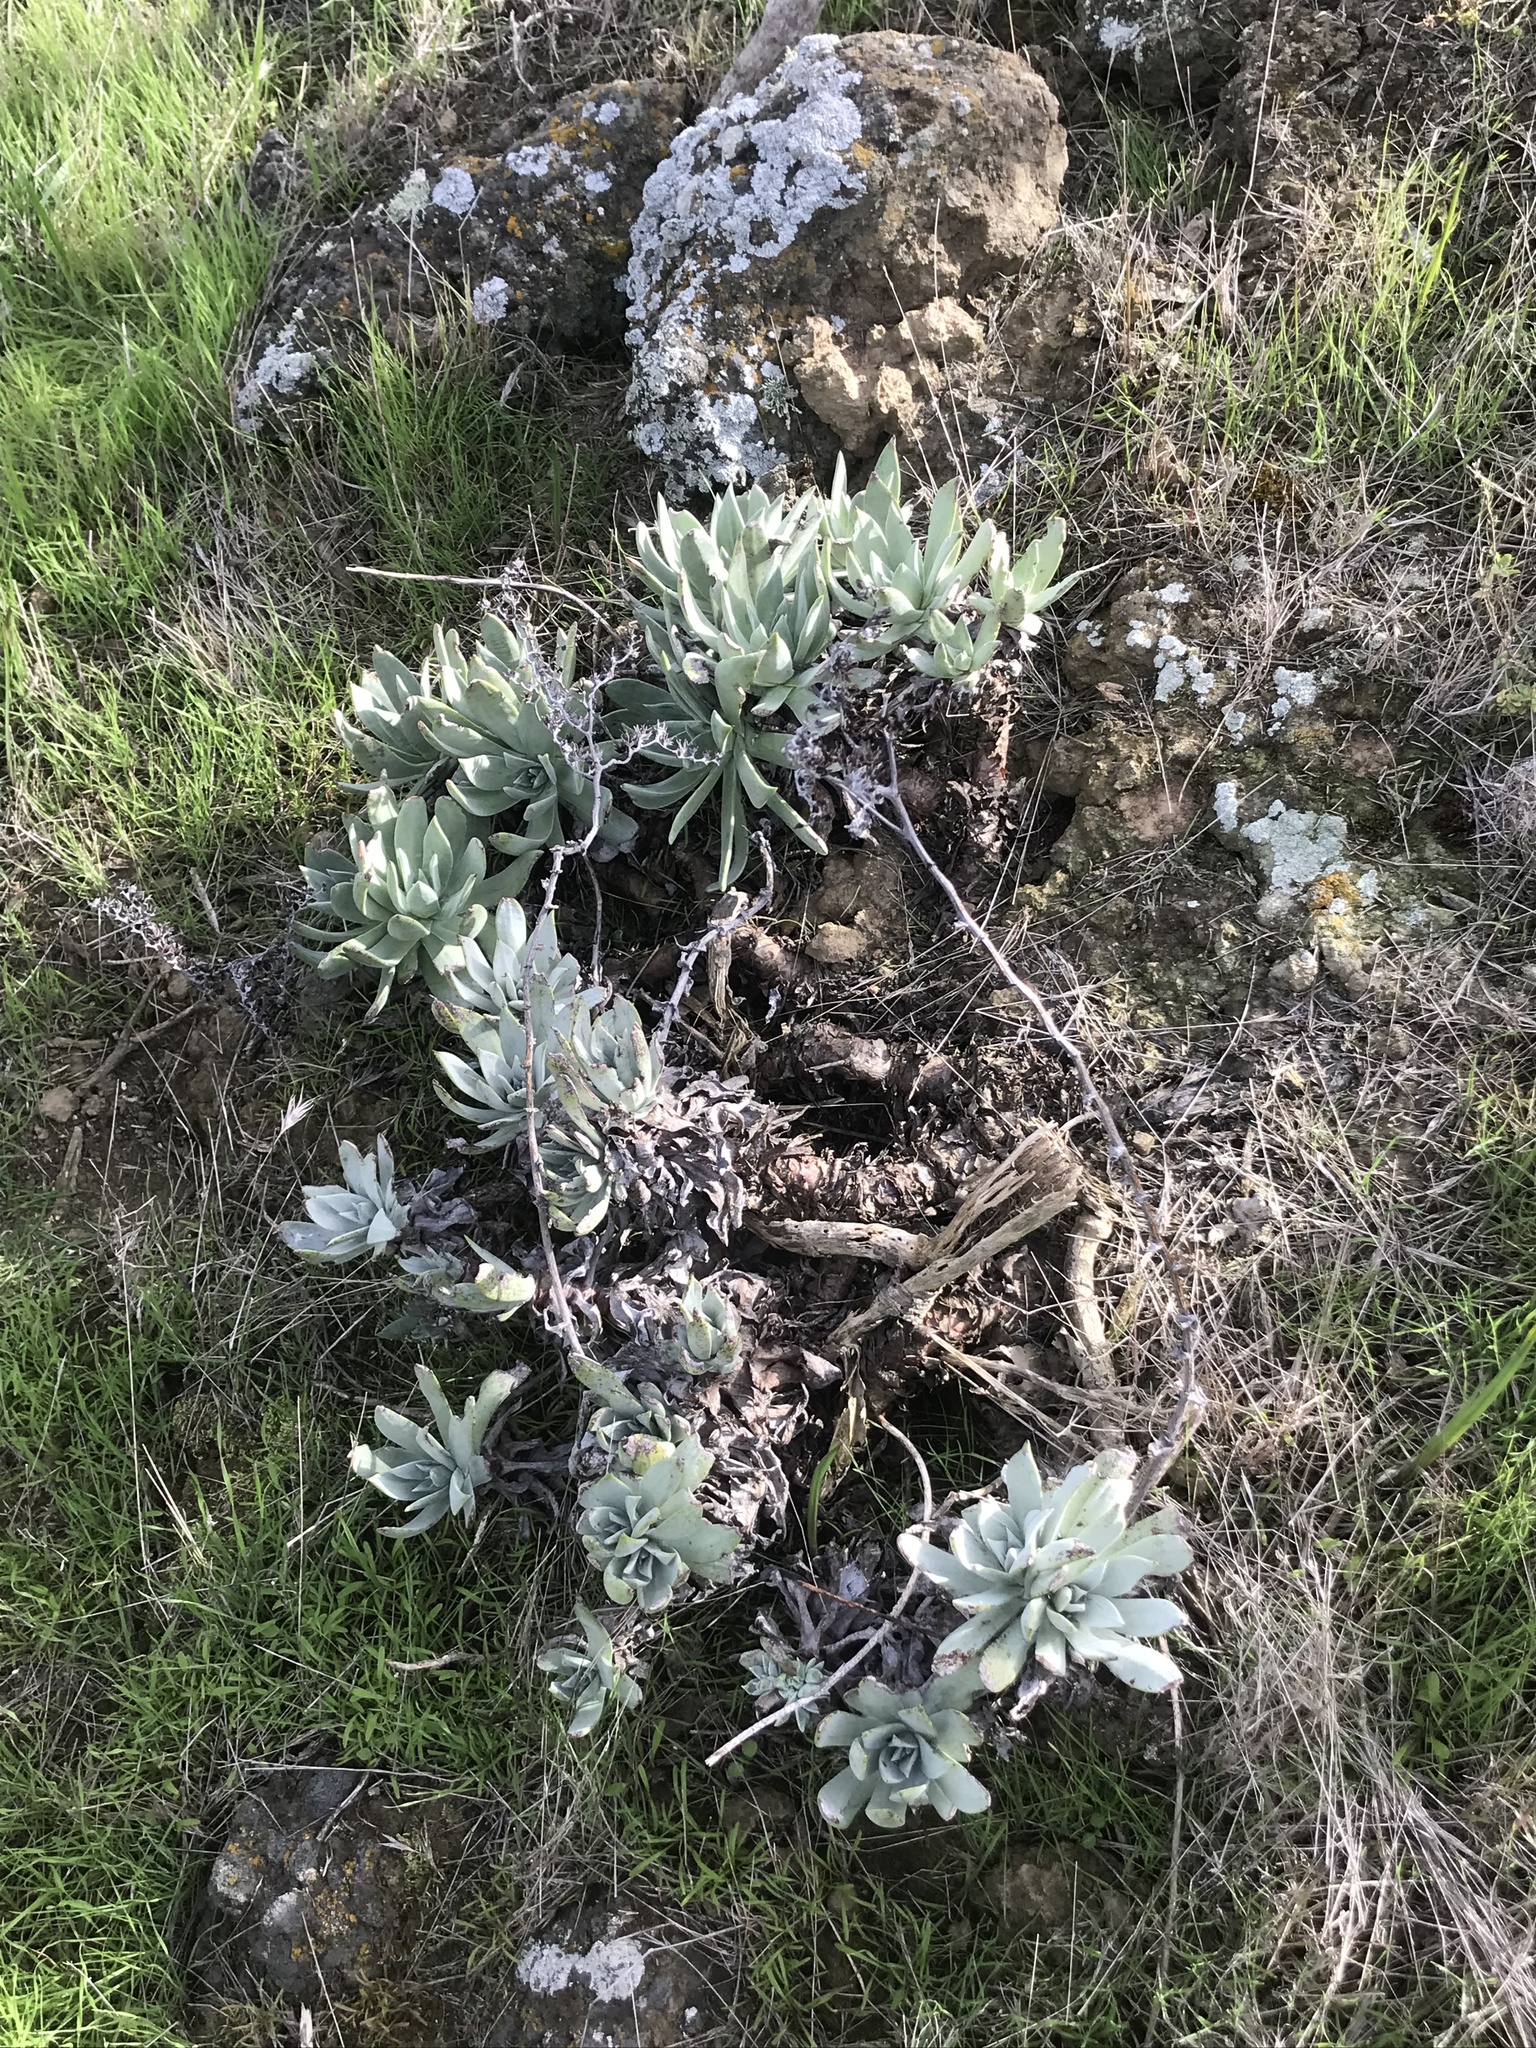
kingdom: Plantae
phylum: Tracheophyta
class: Magnoliopsida
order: Saxifragales
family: Crassulaceae
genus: Dudleya
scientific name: Dudleya traskiae
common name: Santa barbara island dudleya
